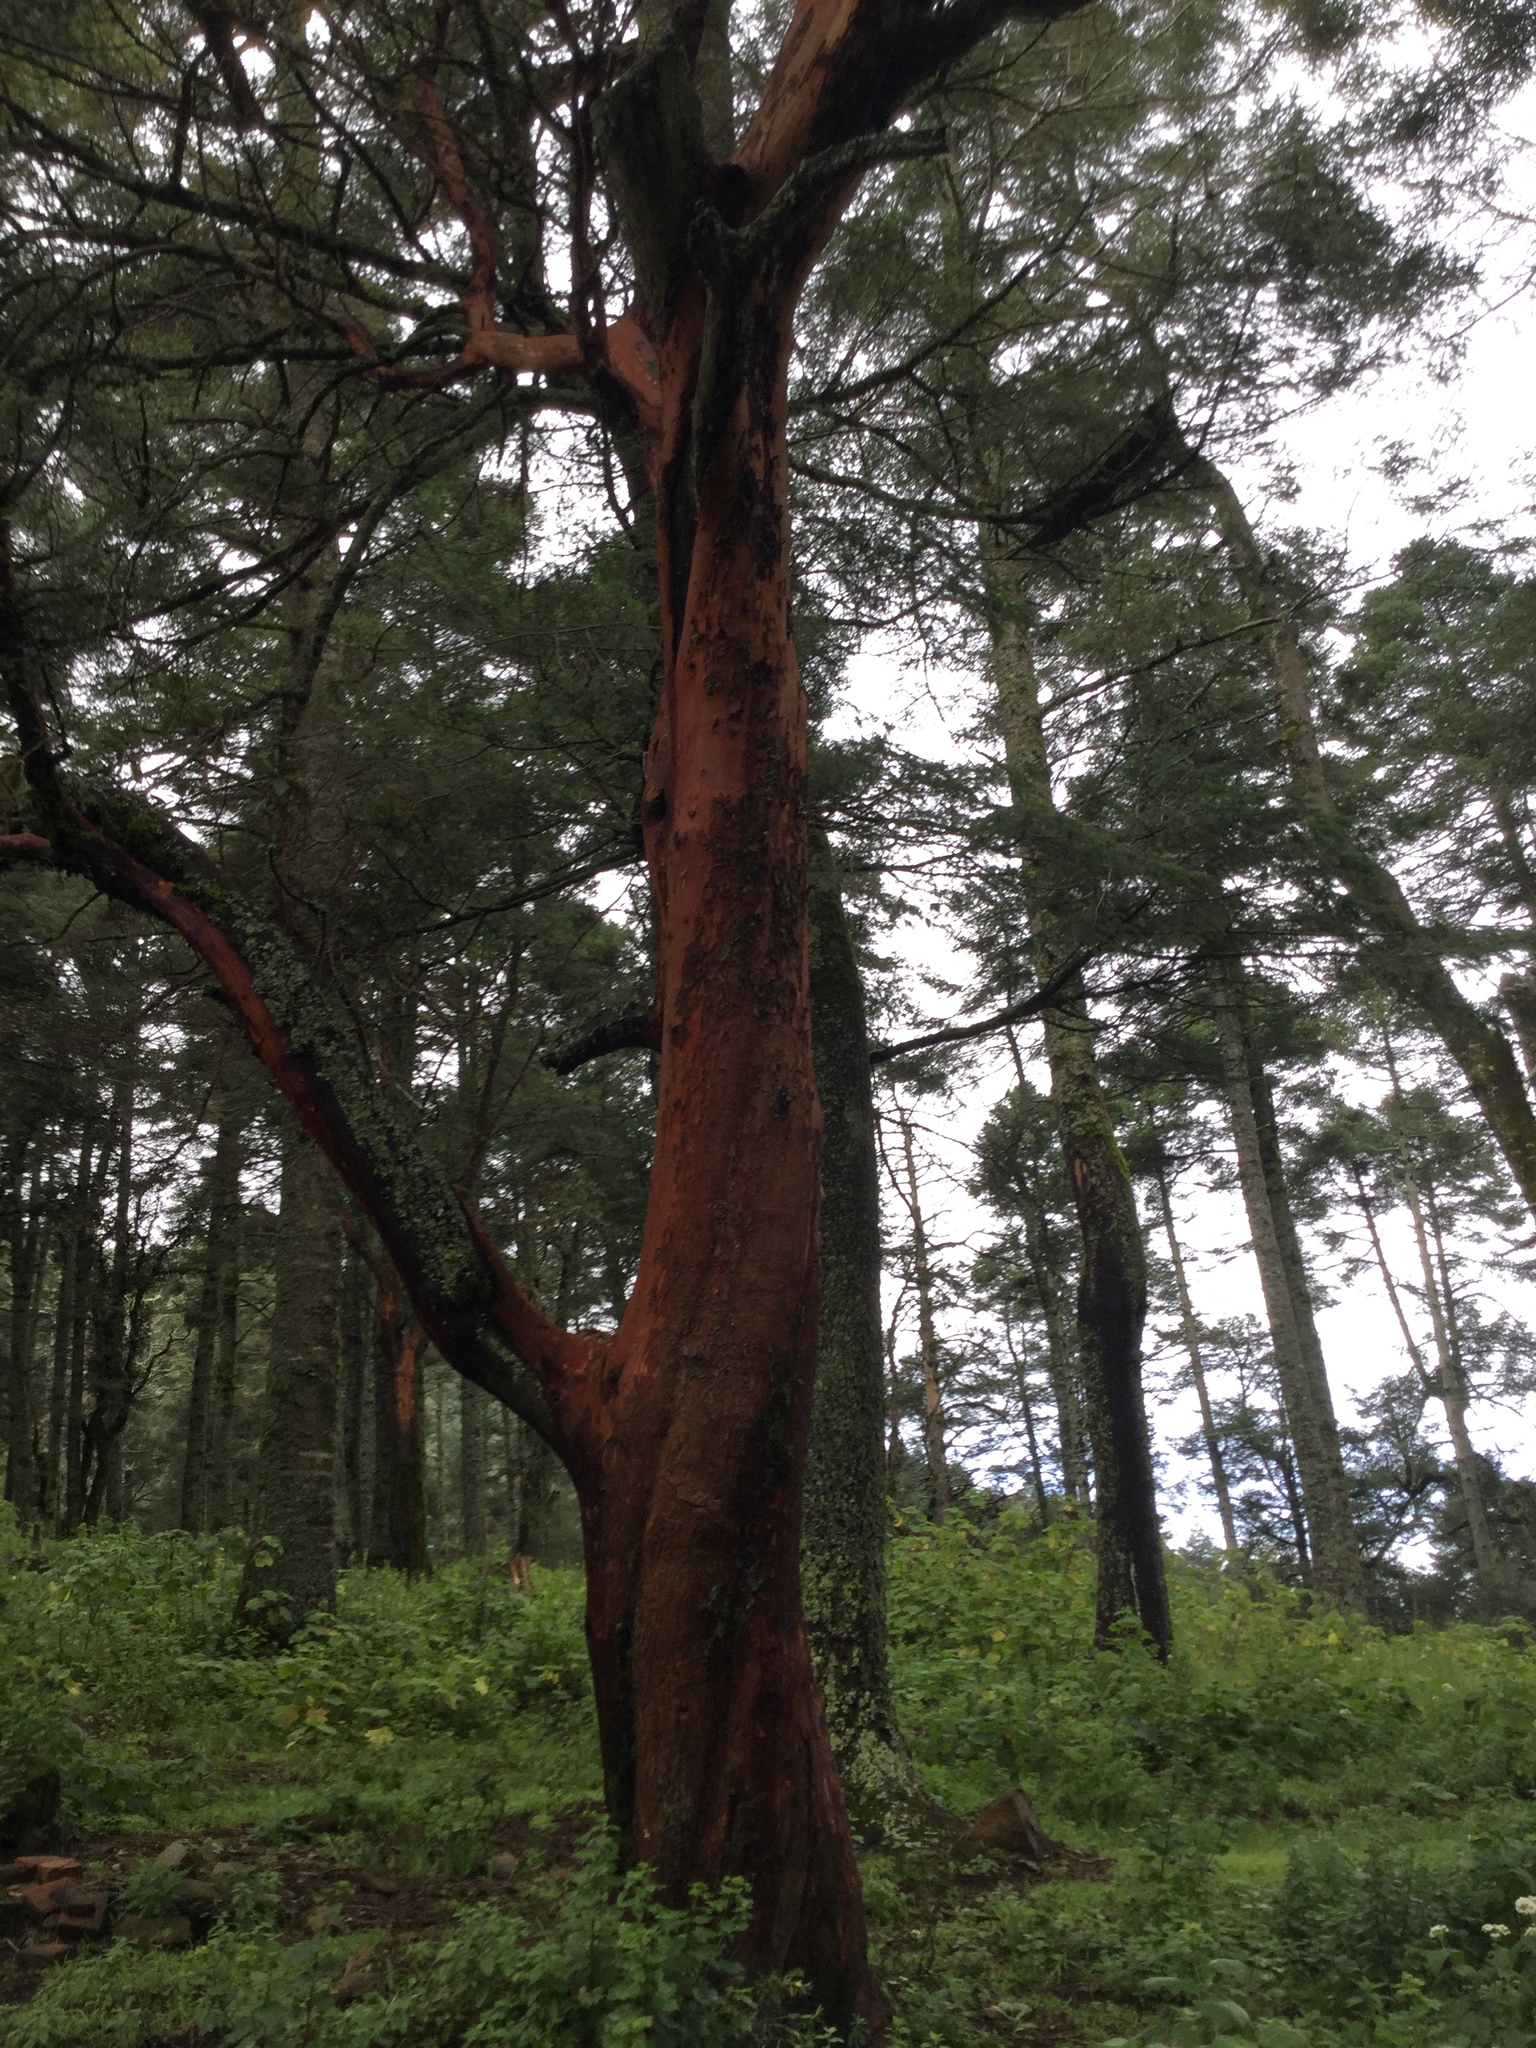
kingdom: Plantae
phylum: Tracheophyta
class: Magnoliopsida
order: Ericales
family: Ericaceae
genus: Arbutus
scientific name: Arbutus xalapensis
